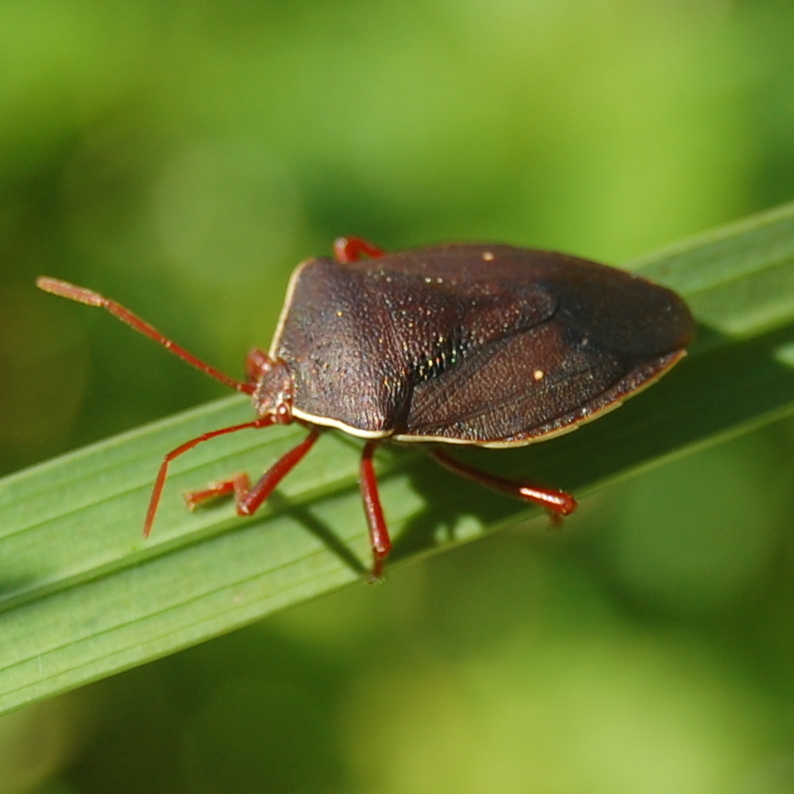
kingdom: Animalia
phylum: Arthropoda
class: Insecta
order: Hemiptera
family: Pentatomidae
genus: Brachystethus
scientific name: Brachystethus geniculatus
